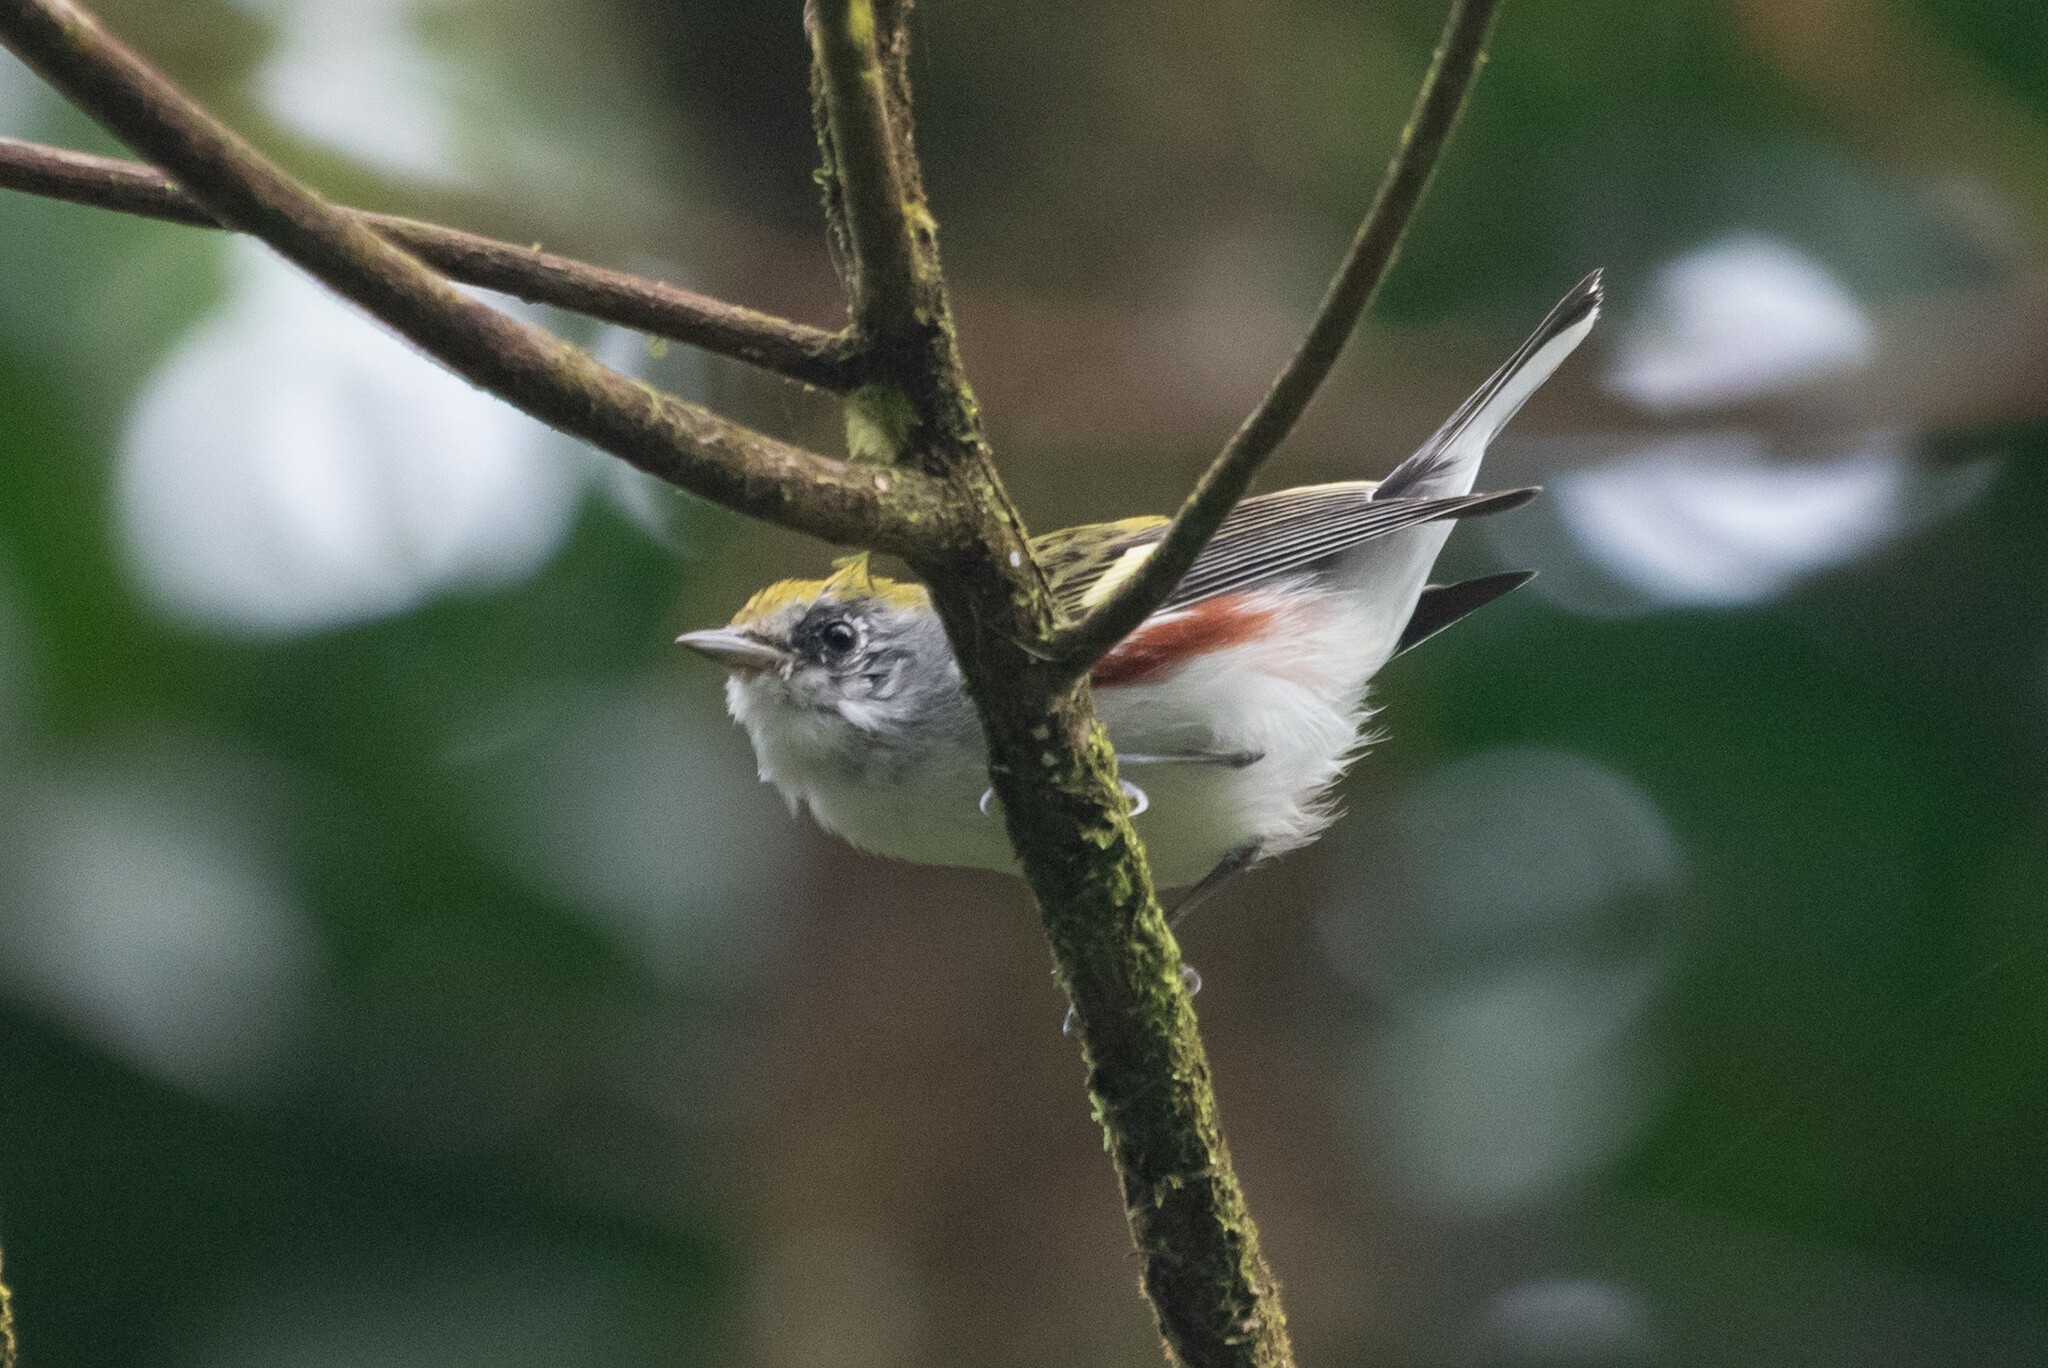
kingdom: Animalia
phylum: Chordata
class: Aves
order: Passeriformes
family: Parulidae
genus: Setophaga
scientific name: Setophaga pensylvanica
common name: Chestnut-sided warbler
